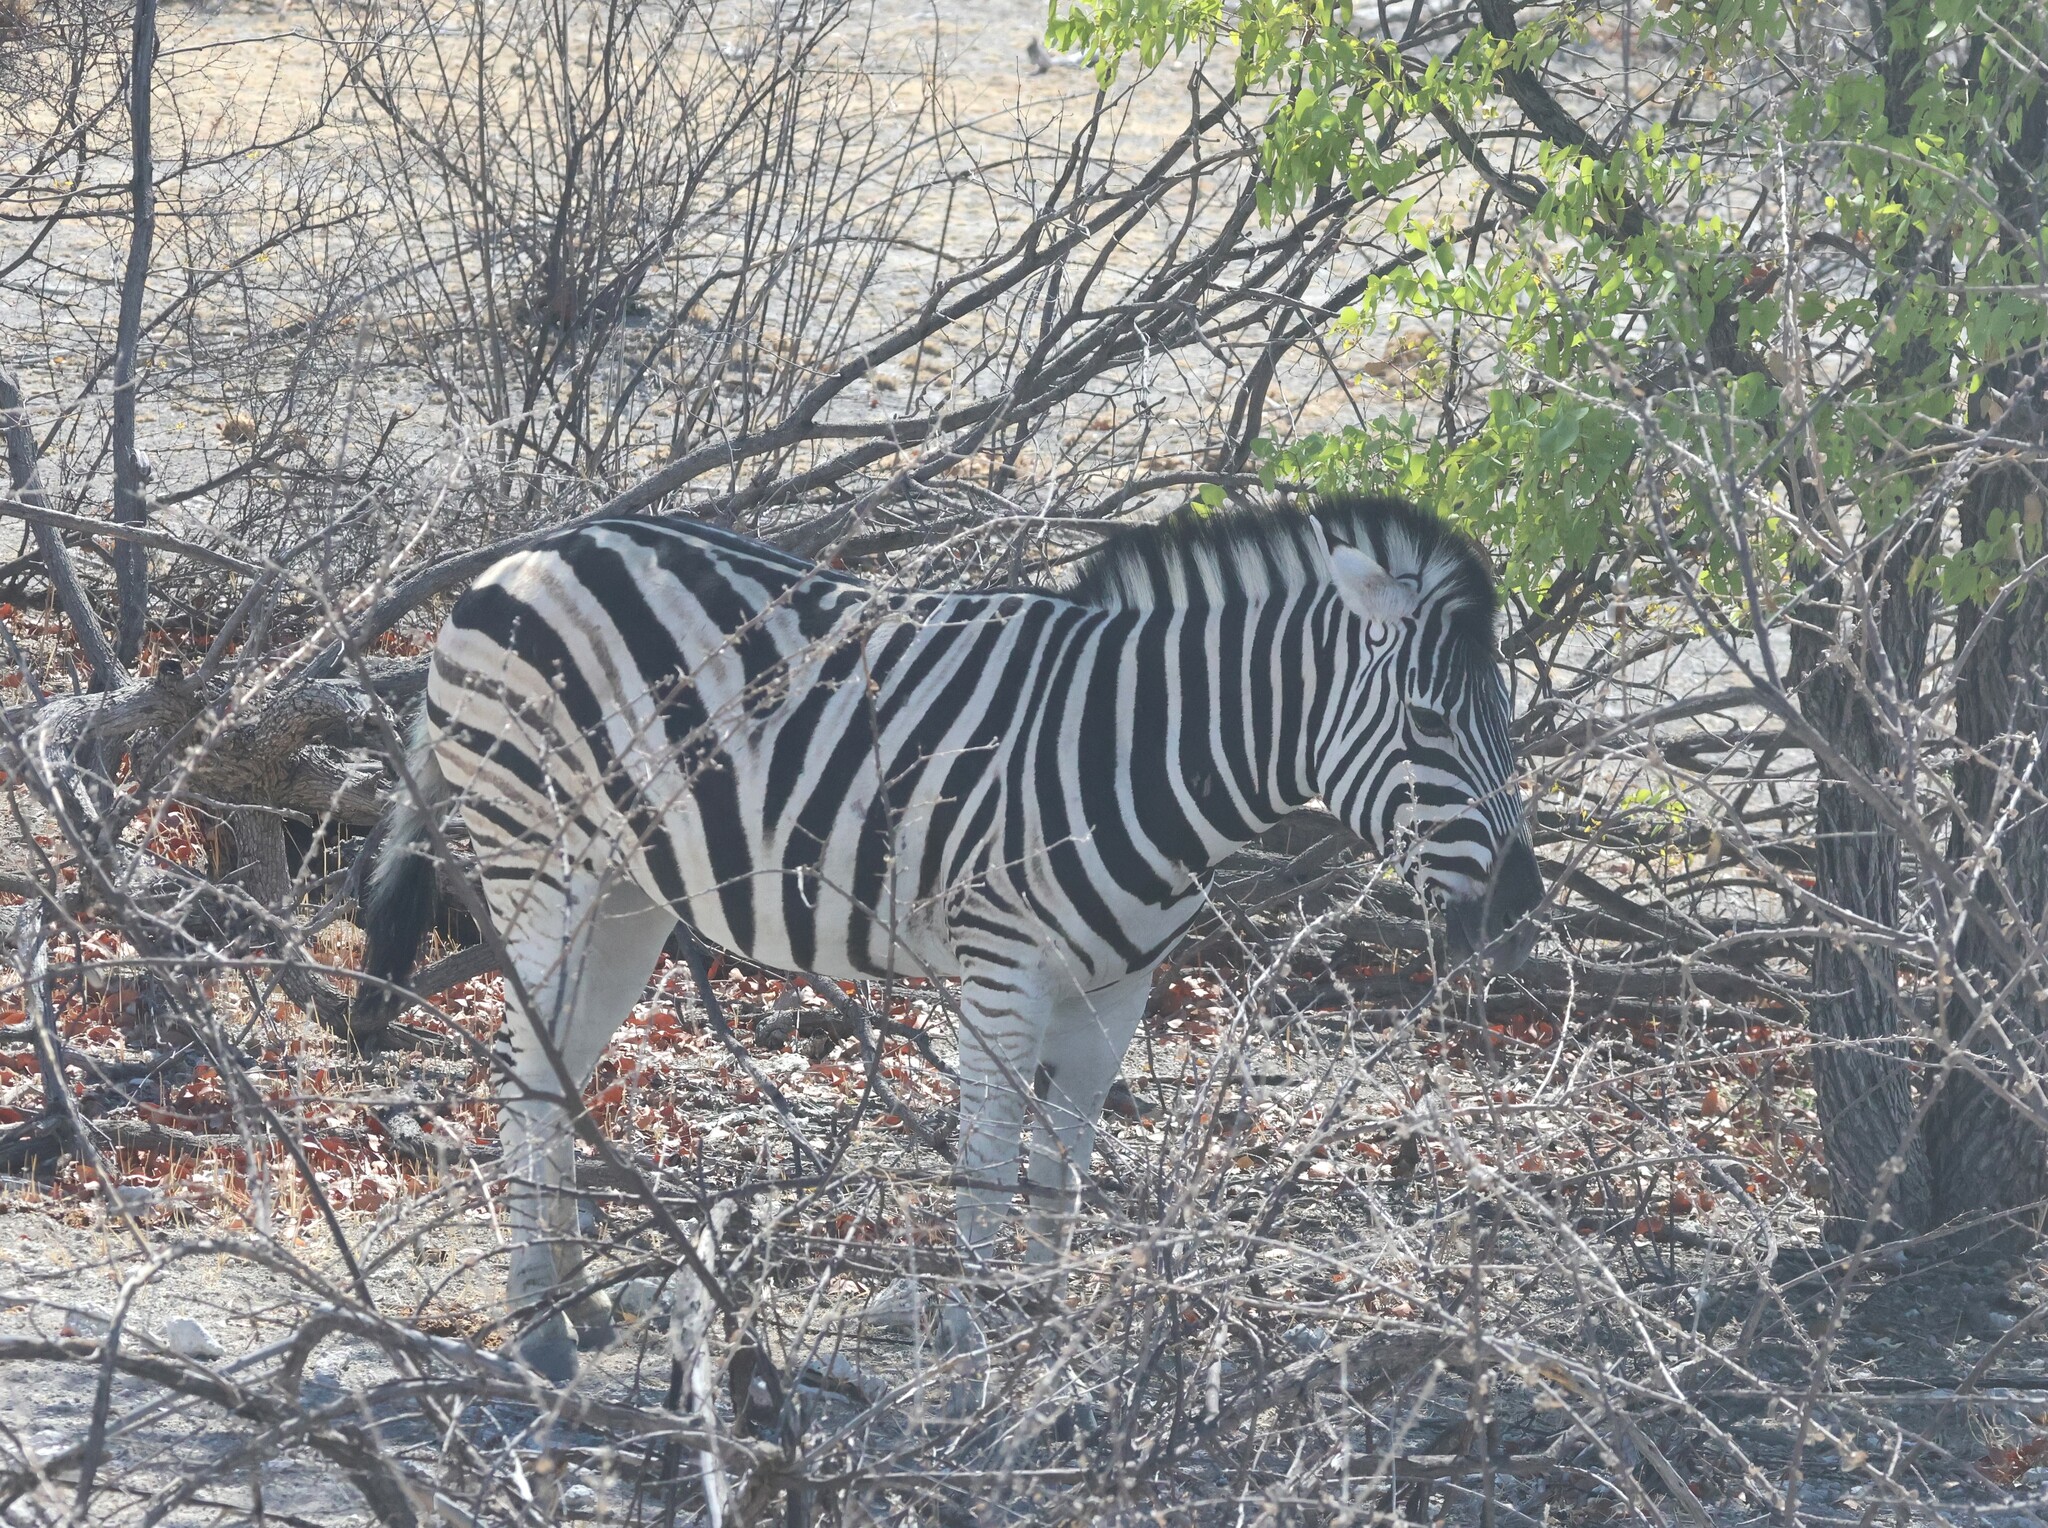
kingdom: Animalia
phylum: Chordata
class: Mammalia
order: Perissodactyla
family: Equidae
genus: Equus
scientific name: Equus quagga
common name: Plains zebra
